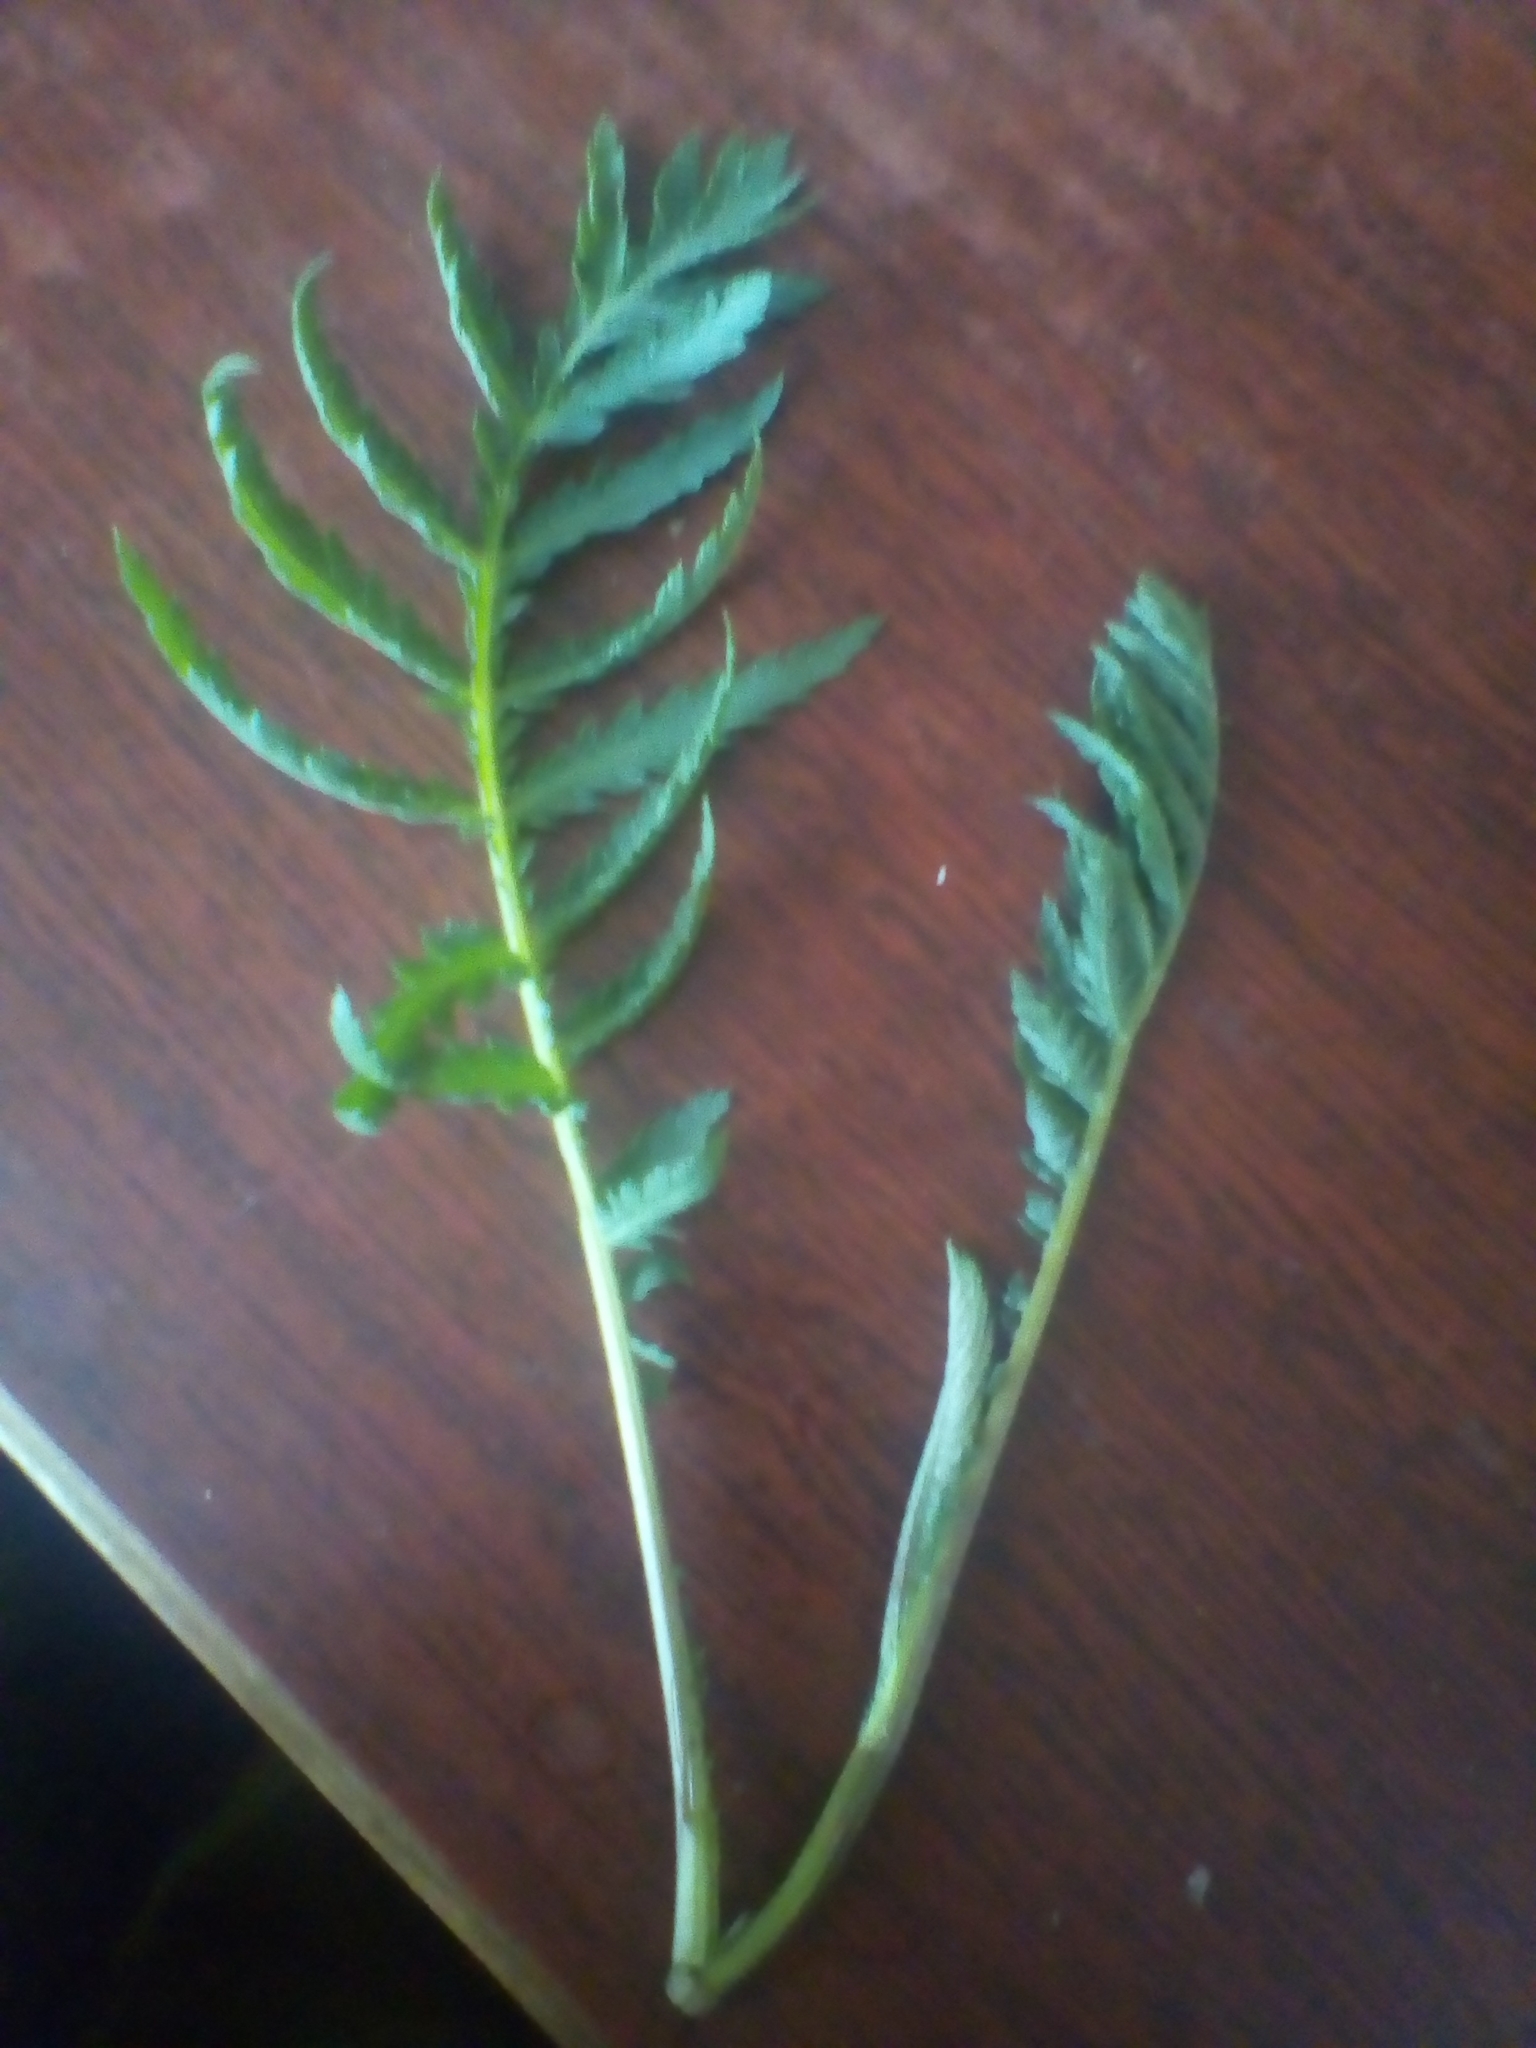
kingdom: Plantae
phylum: Tracheophyta
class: Magnoliopsida
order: Asterales
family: Asteraceae
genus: Tanacetum
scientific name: Tanacetum vulgare
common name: Common tansy
